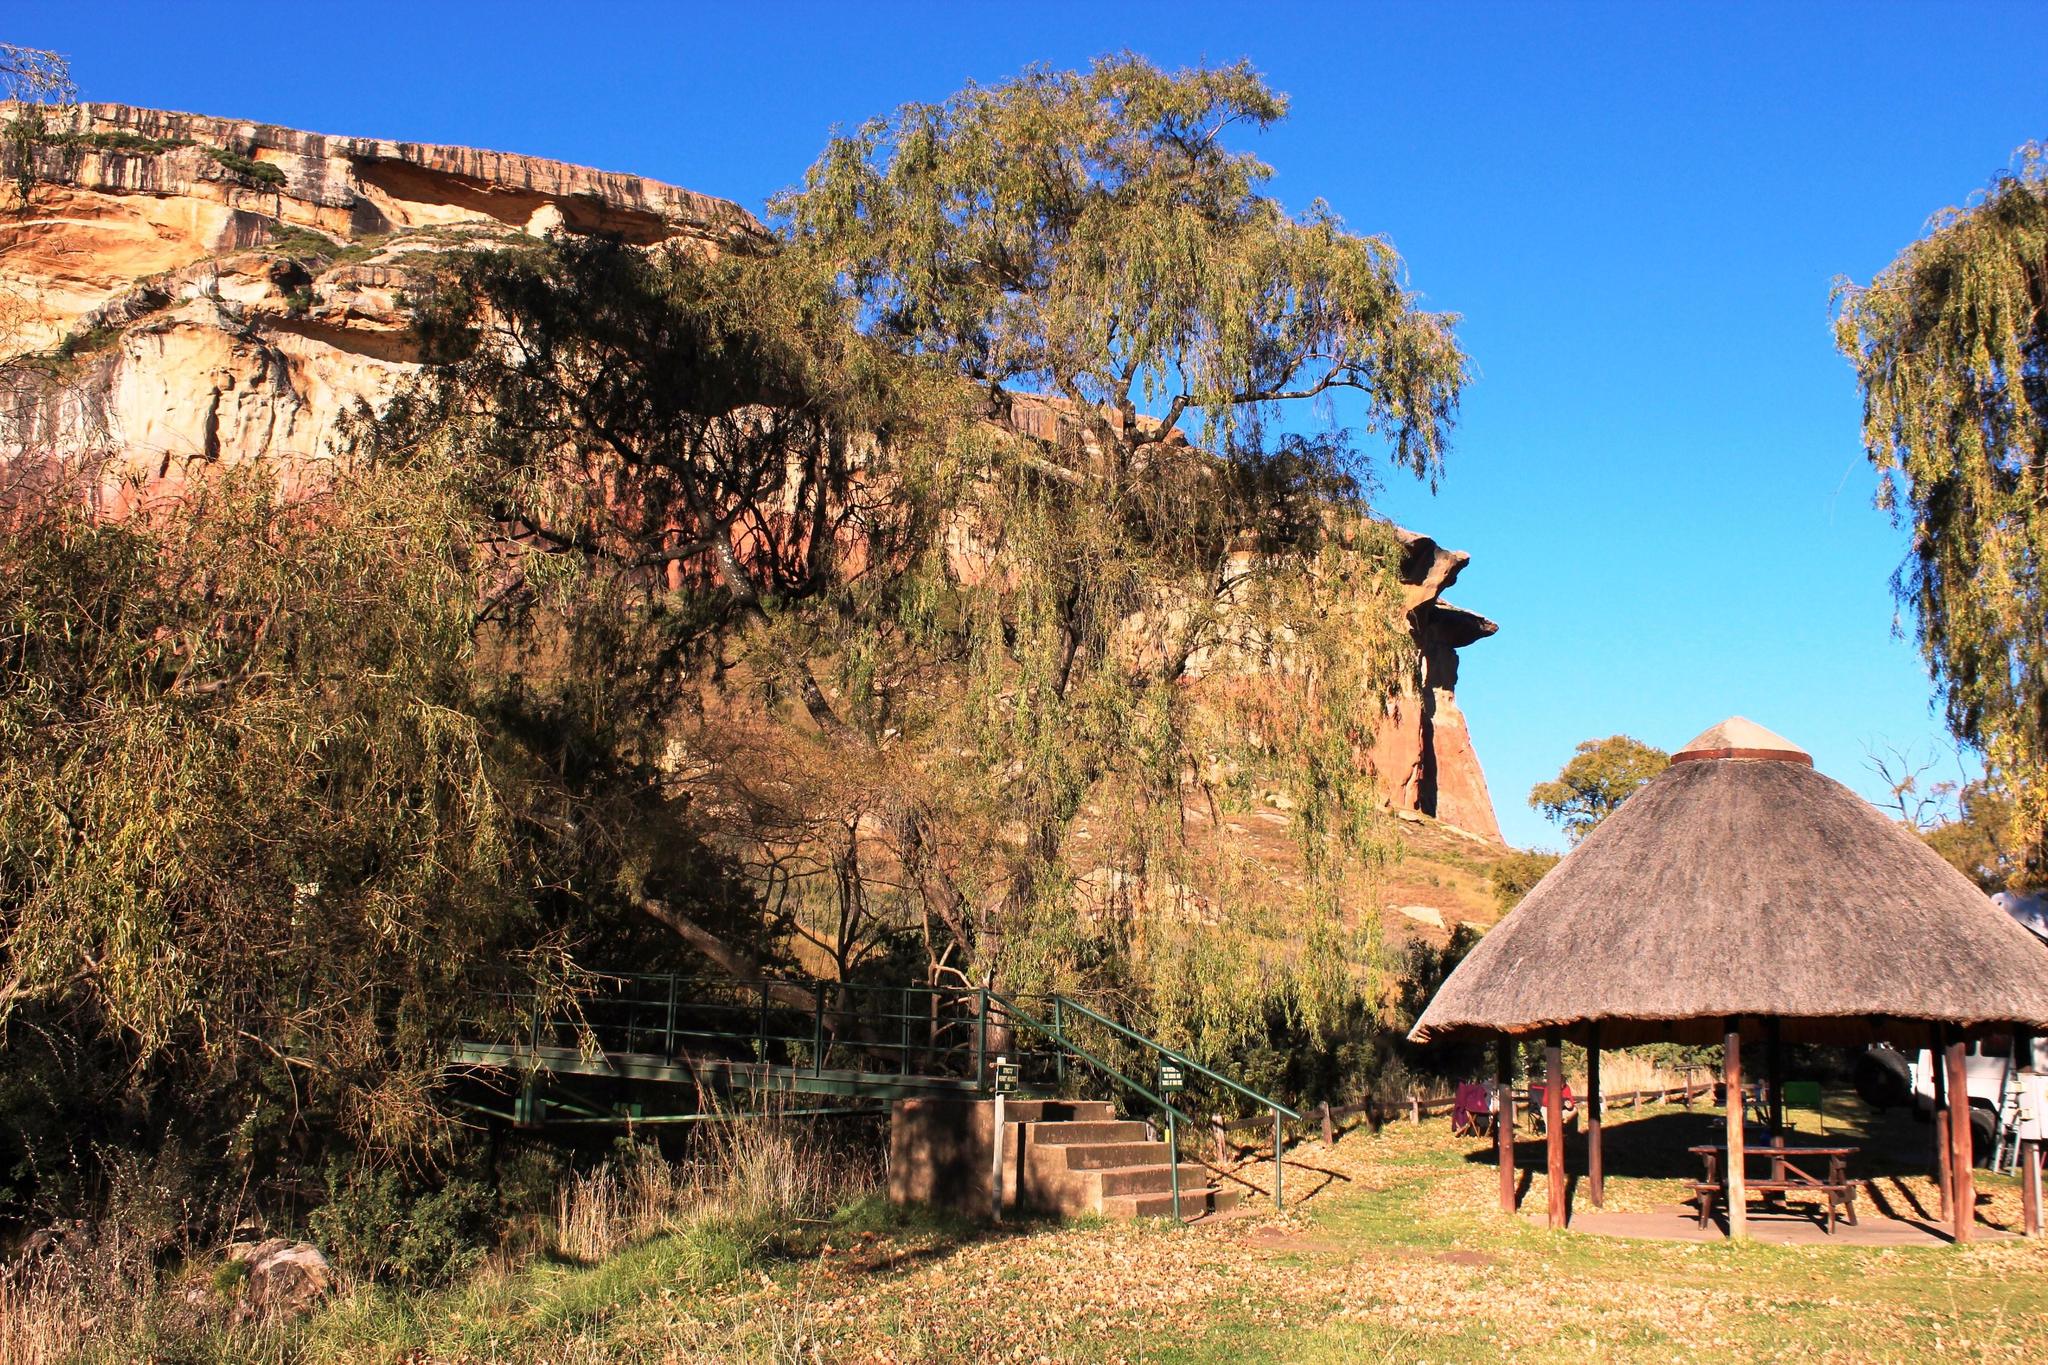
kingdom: Plantae
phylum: Tracheophyta
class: Magnoliopsida
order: Malpighiales
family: Salicaceae
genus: Salix
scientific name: Salix babylonica
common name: Weeping willow
